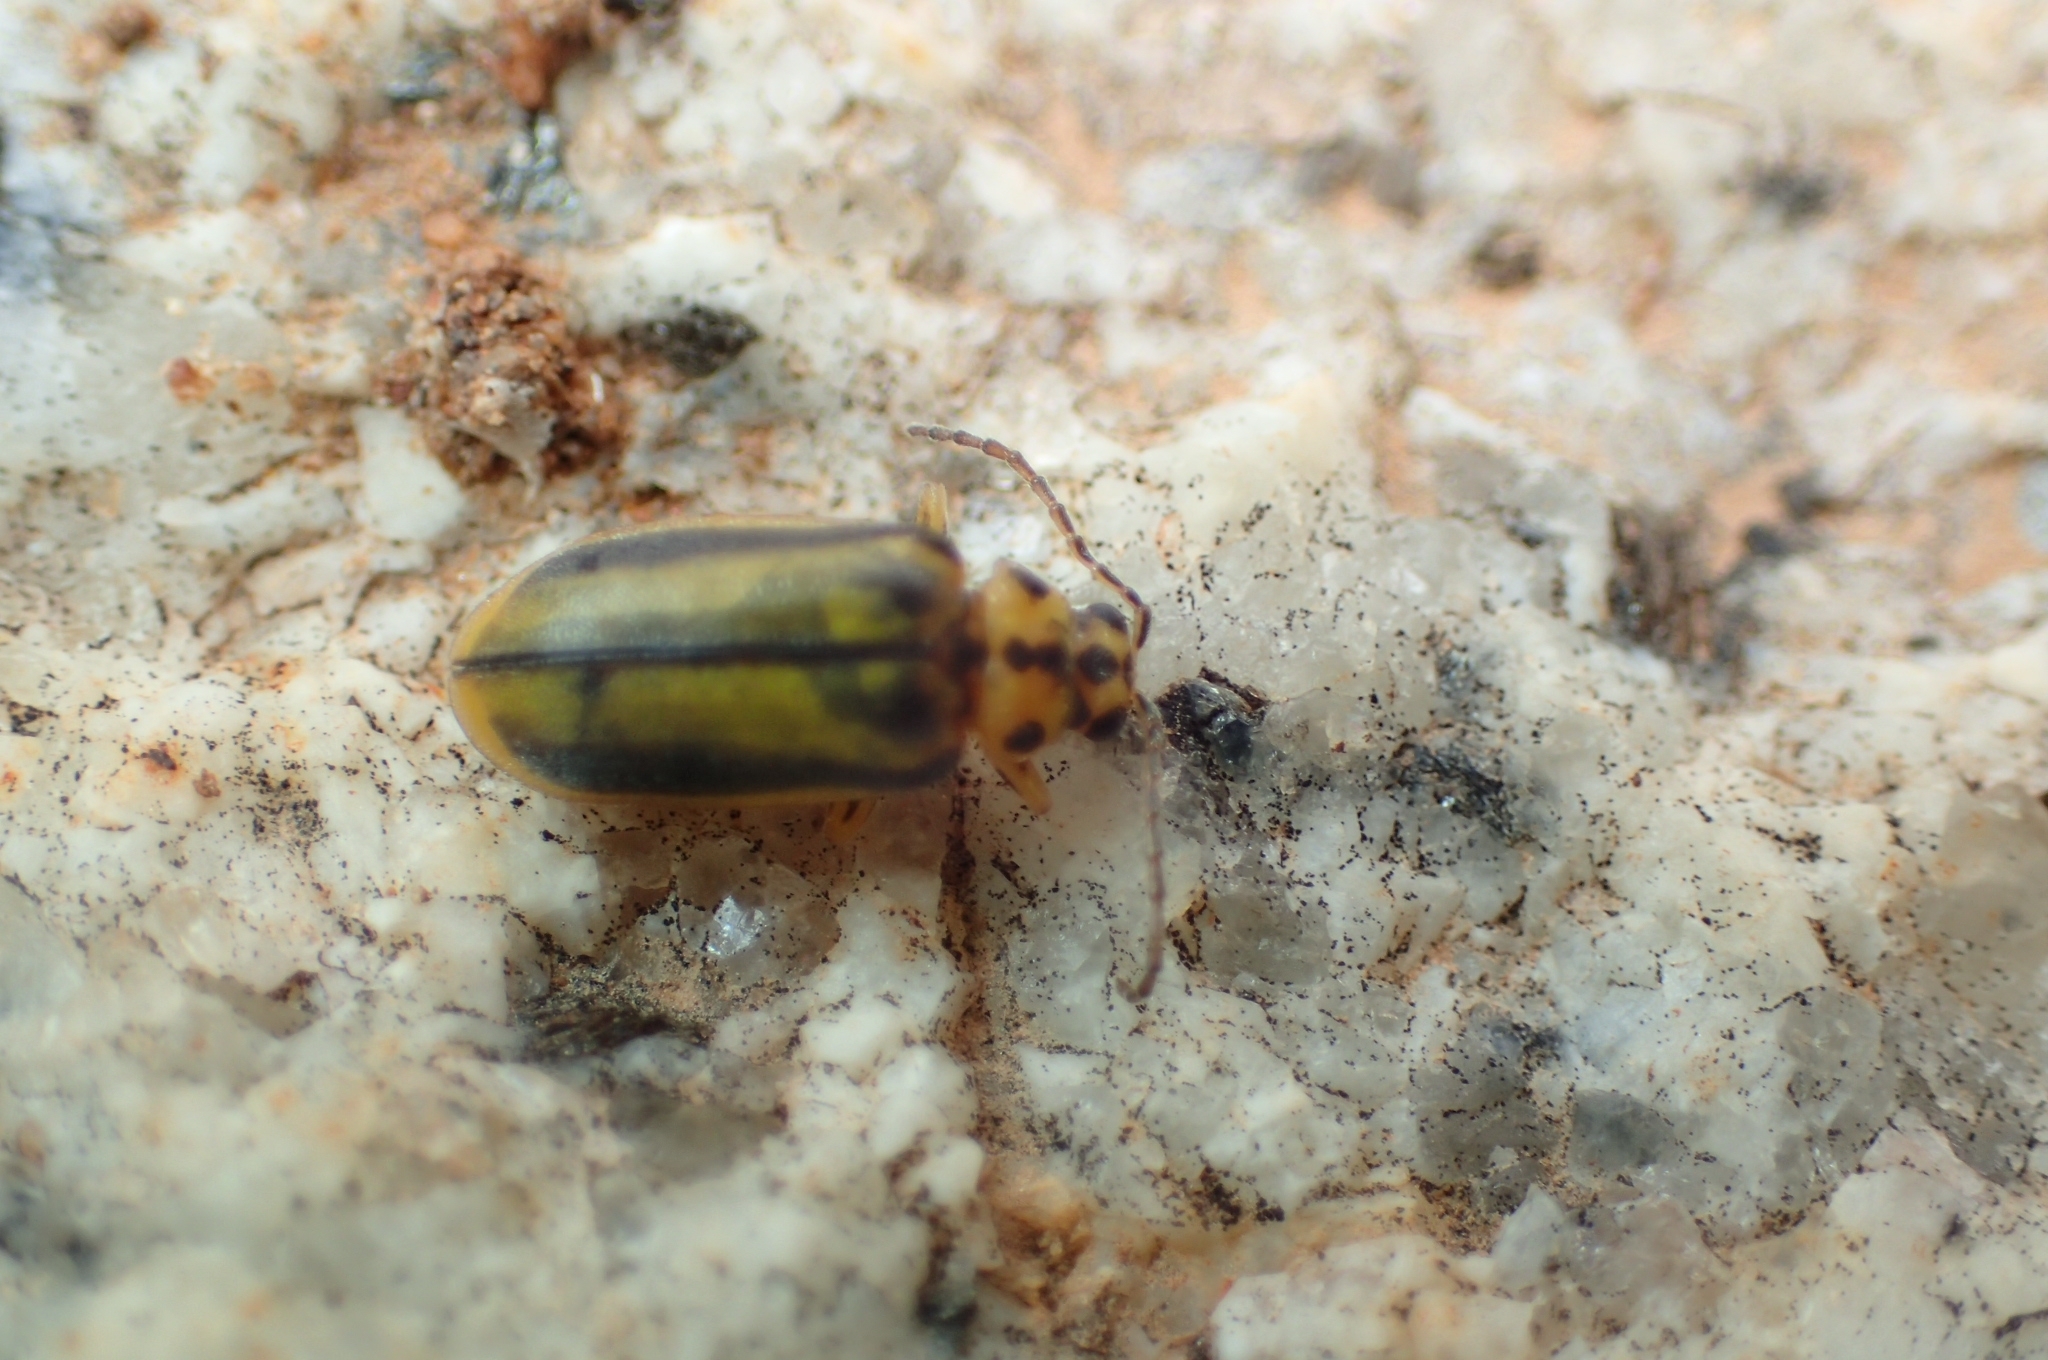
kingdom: Animalia
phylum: Arthropoda
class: Insecta
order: Coleoptera
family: Chrysomelidae
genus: Xanthogaleruca
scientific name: Xanthogaleruca luteola
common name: Elm leaf beetle
